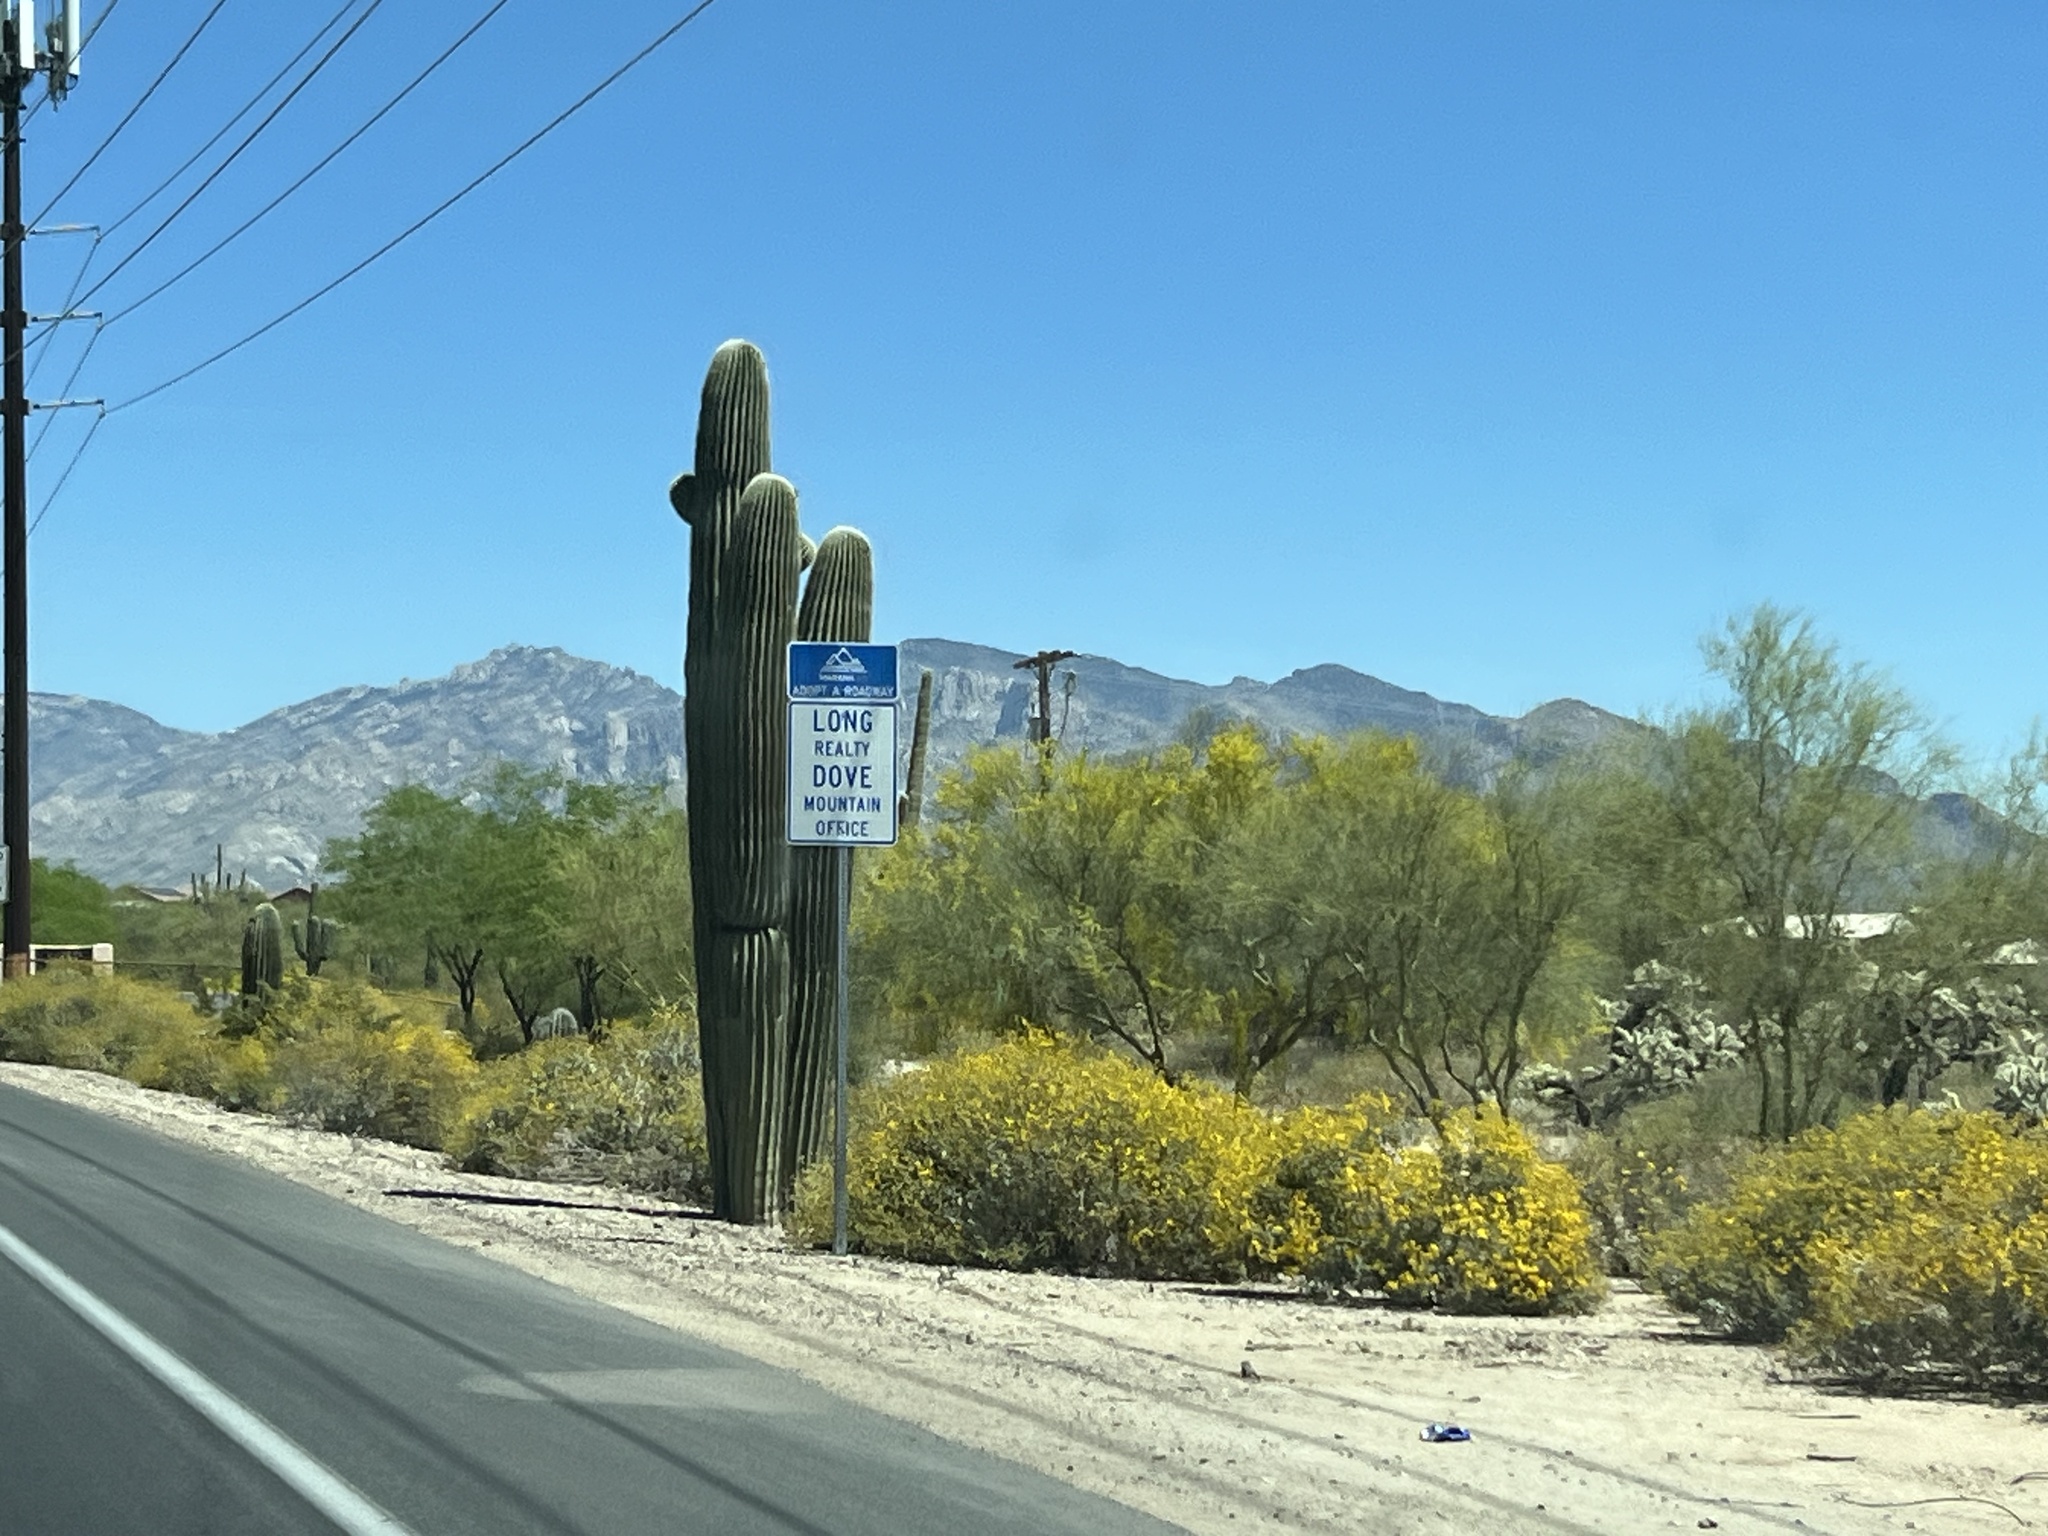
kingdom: Plantae
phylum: Tracheophyta
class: Magnoliopsida
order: Caryophyllales
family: Cactaceae
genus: Carnegiea
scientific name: Carnegiea gigantea
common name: Saguaro
